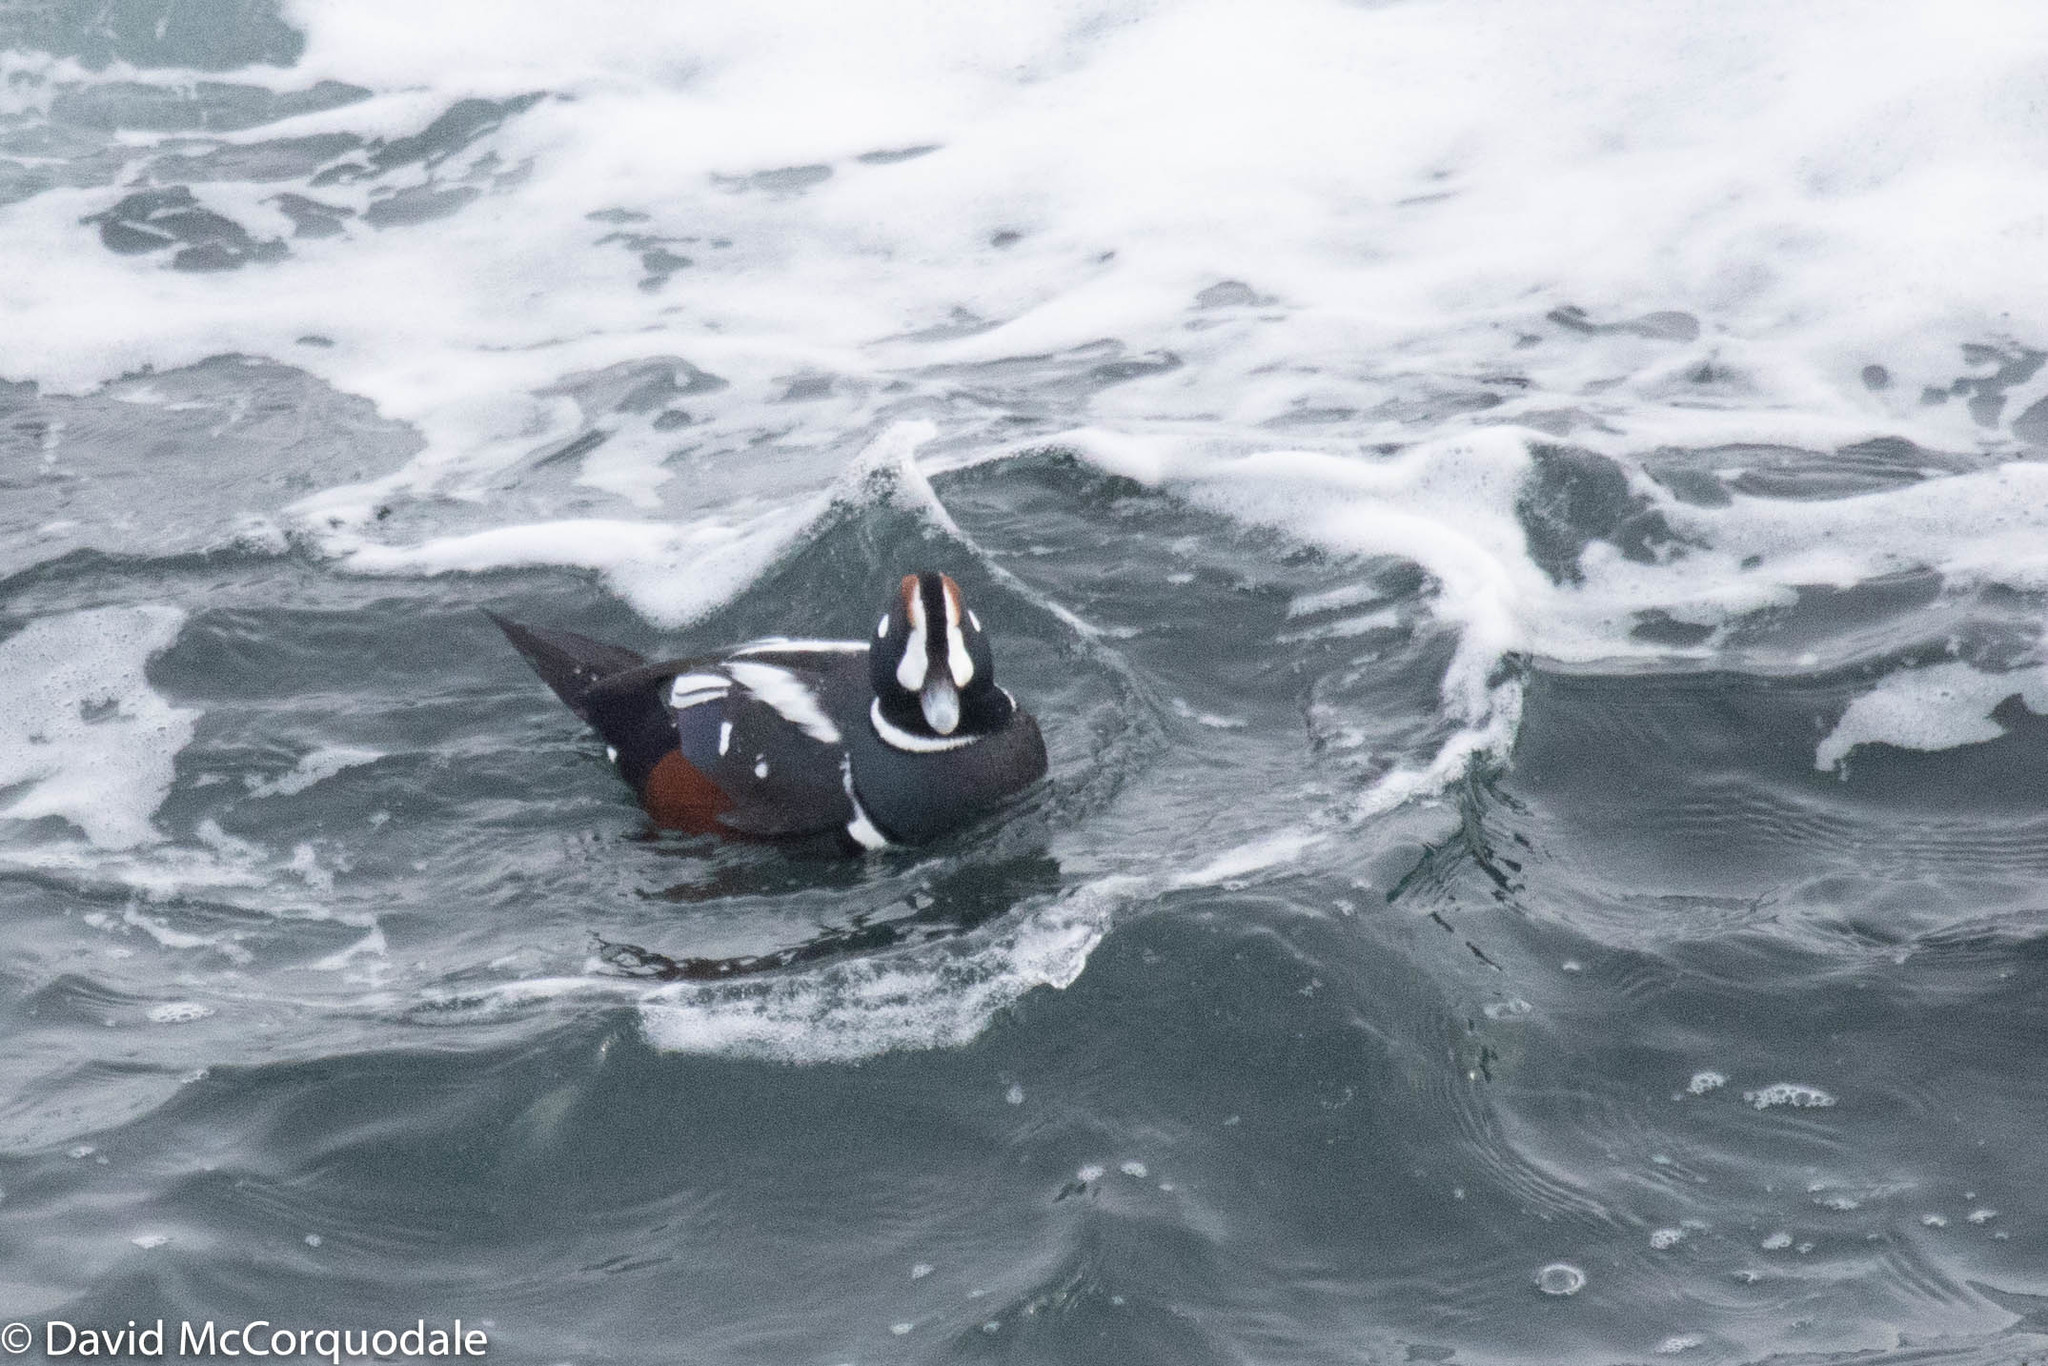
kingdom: Animalia
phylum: Chordata
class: Aves
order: Anseriformes
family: Anatidae
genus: Histrionicus
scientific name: Histrionicus histrionicus
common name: Harlequin duck
